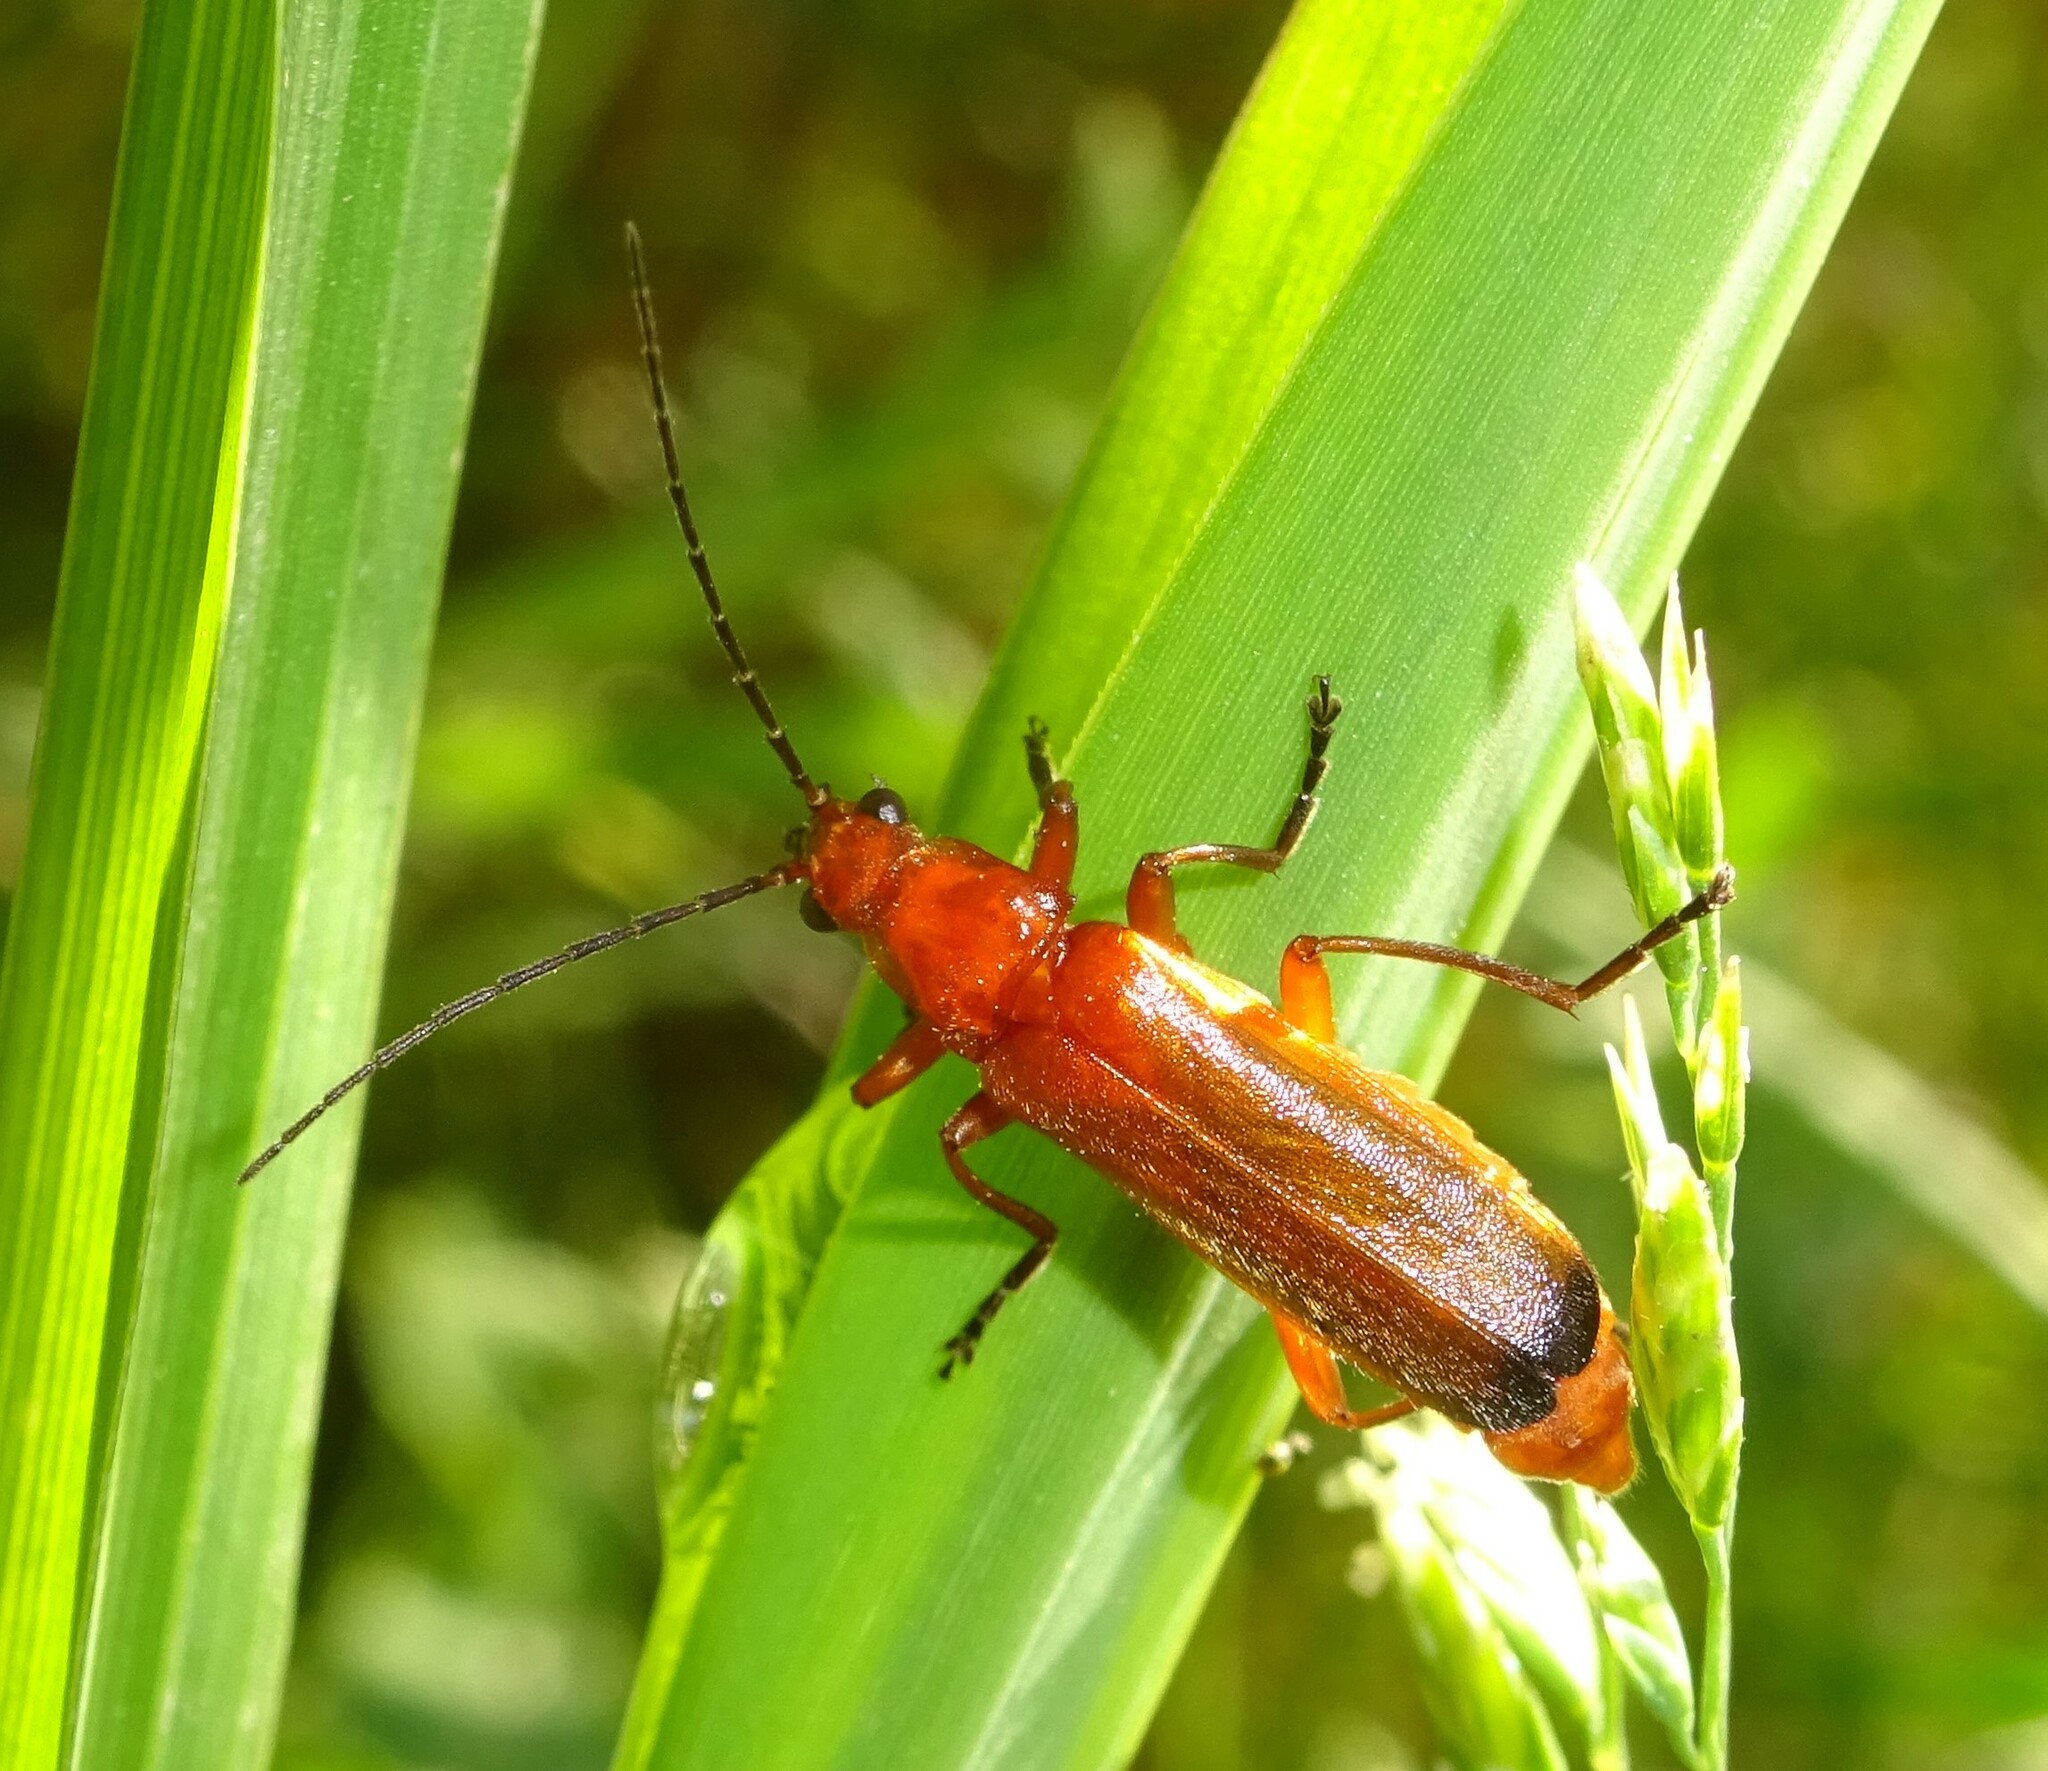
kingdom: Animalia
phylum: Arthropoda
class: Insecta
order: Coleoptera
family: Cantharidae
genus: Rhagonycha
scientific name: Rhagonycha fulva
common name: Common red soldier beetle
